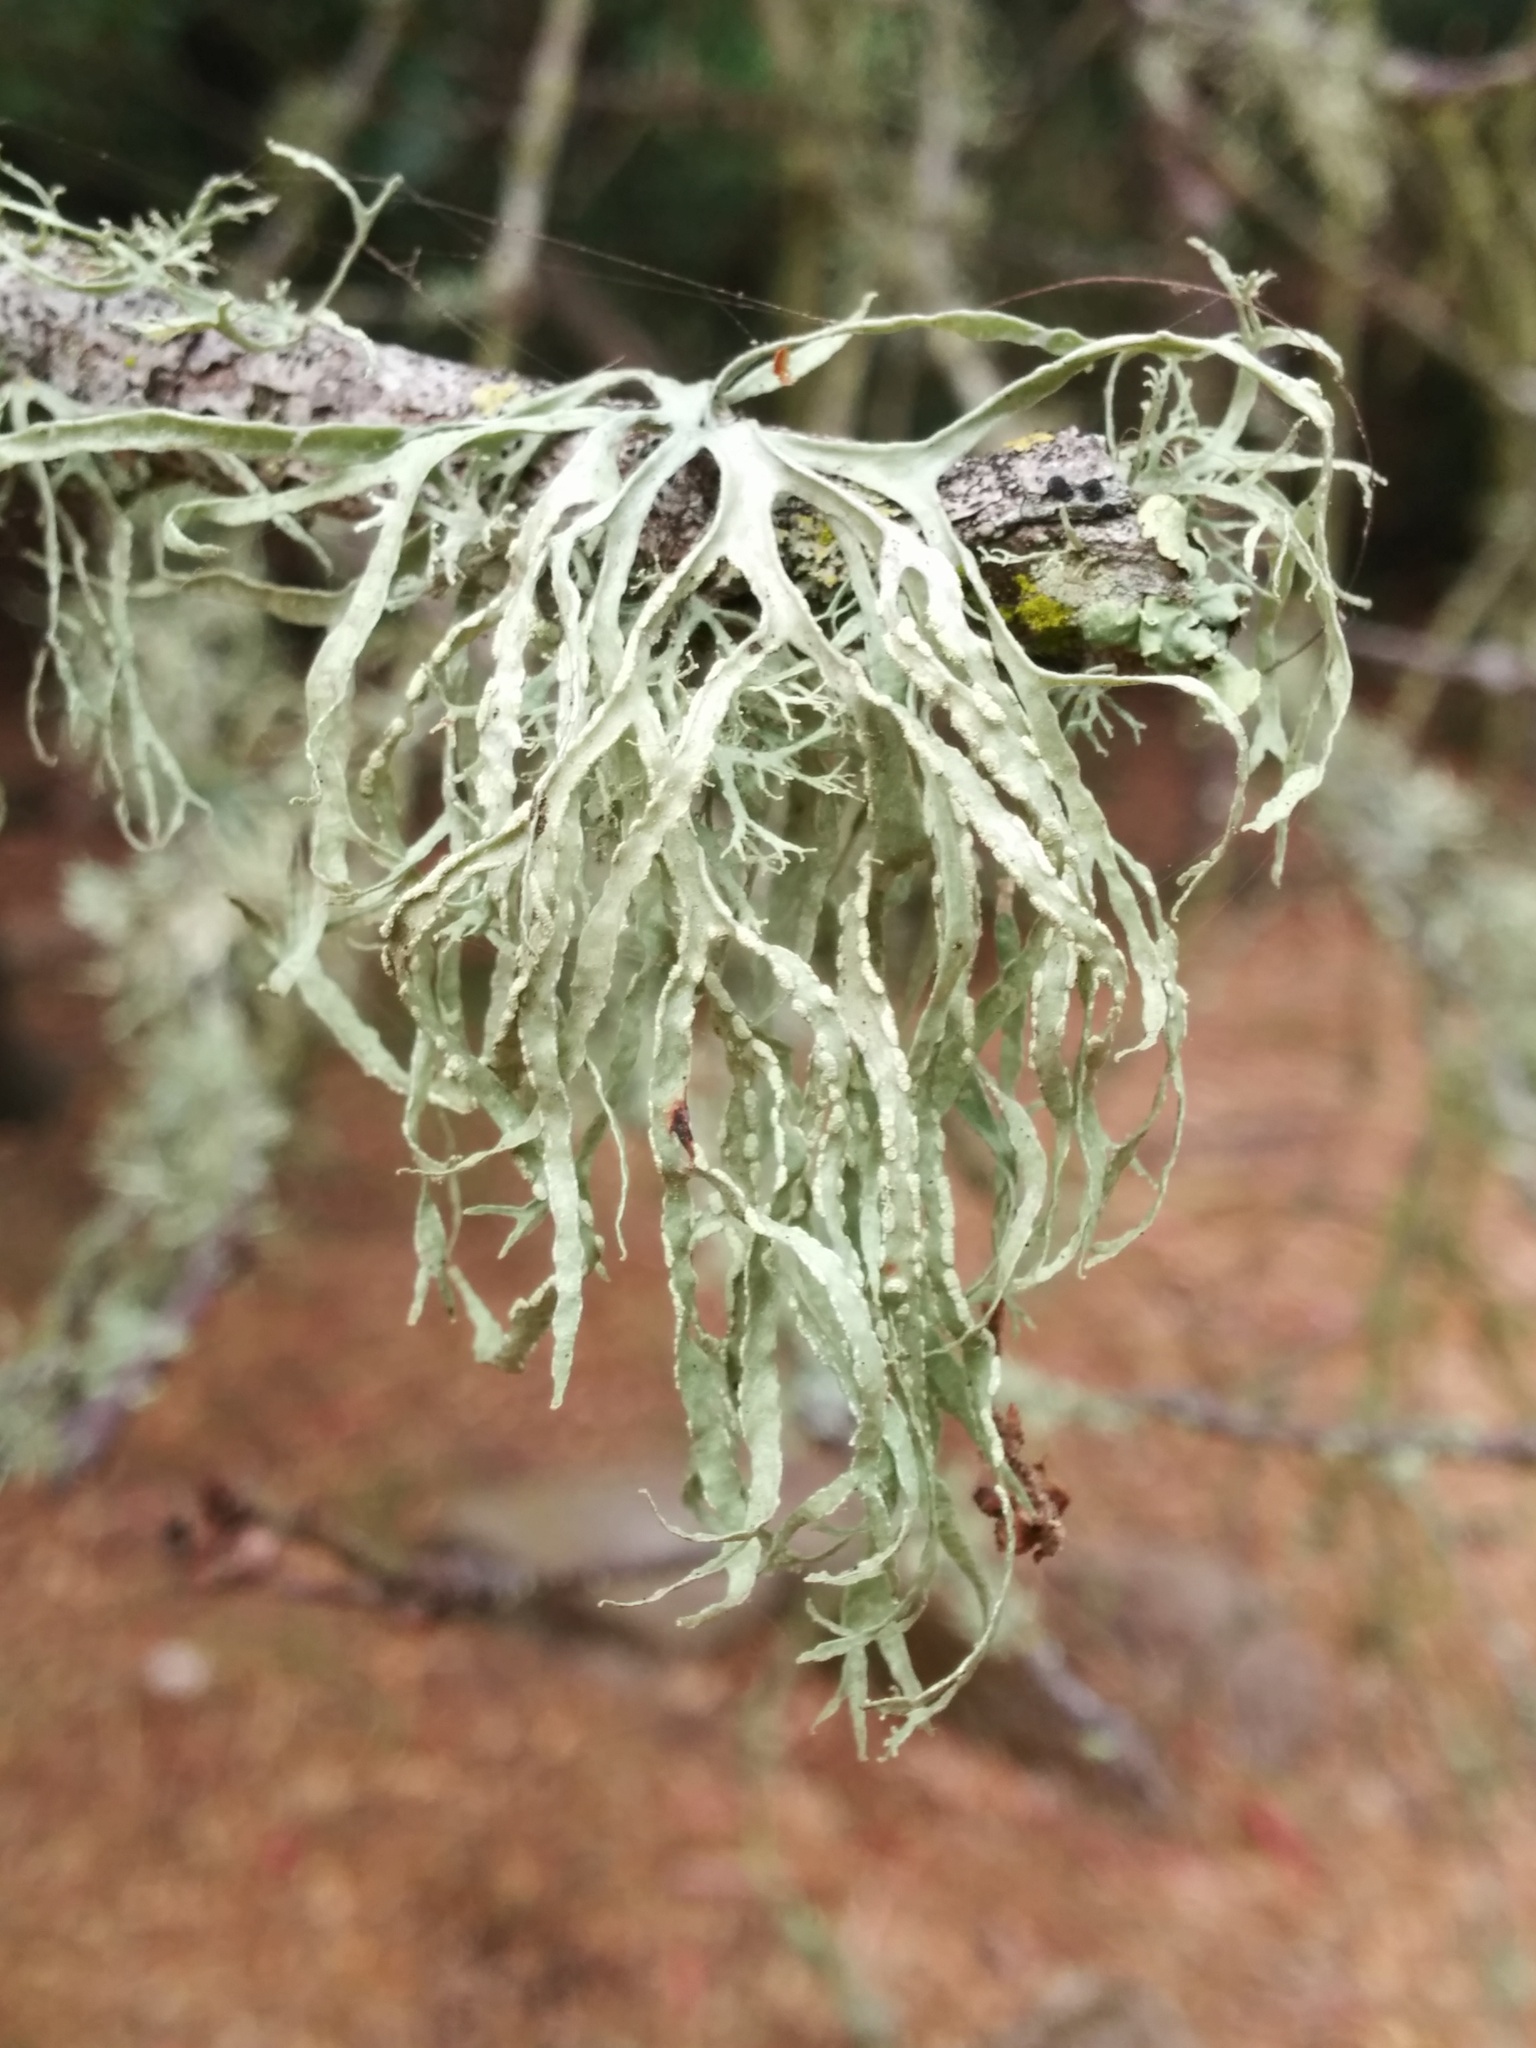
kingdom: Fungi
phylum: Ascomycota
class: Lecanoromycetes
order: Lecanorales
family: Ramalinaceae
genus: Ramalina
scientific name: Ramalina farinacea
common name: Farinose cartilage lichen
